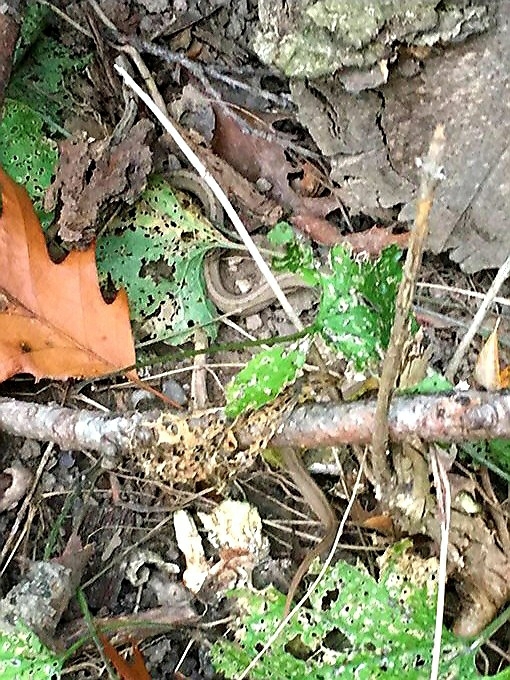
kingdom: Animalia
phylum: Chordata
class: Squamata
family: Colubridae
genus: Storeria
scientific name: Storeria dekayi
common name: (dekay’s) brown snake
